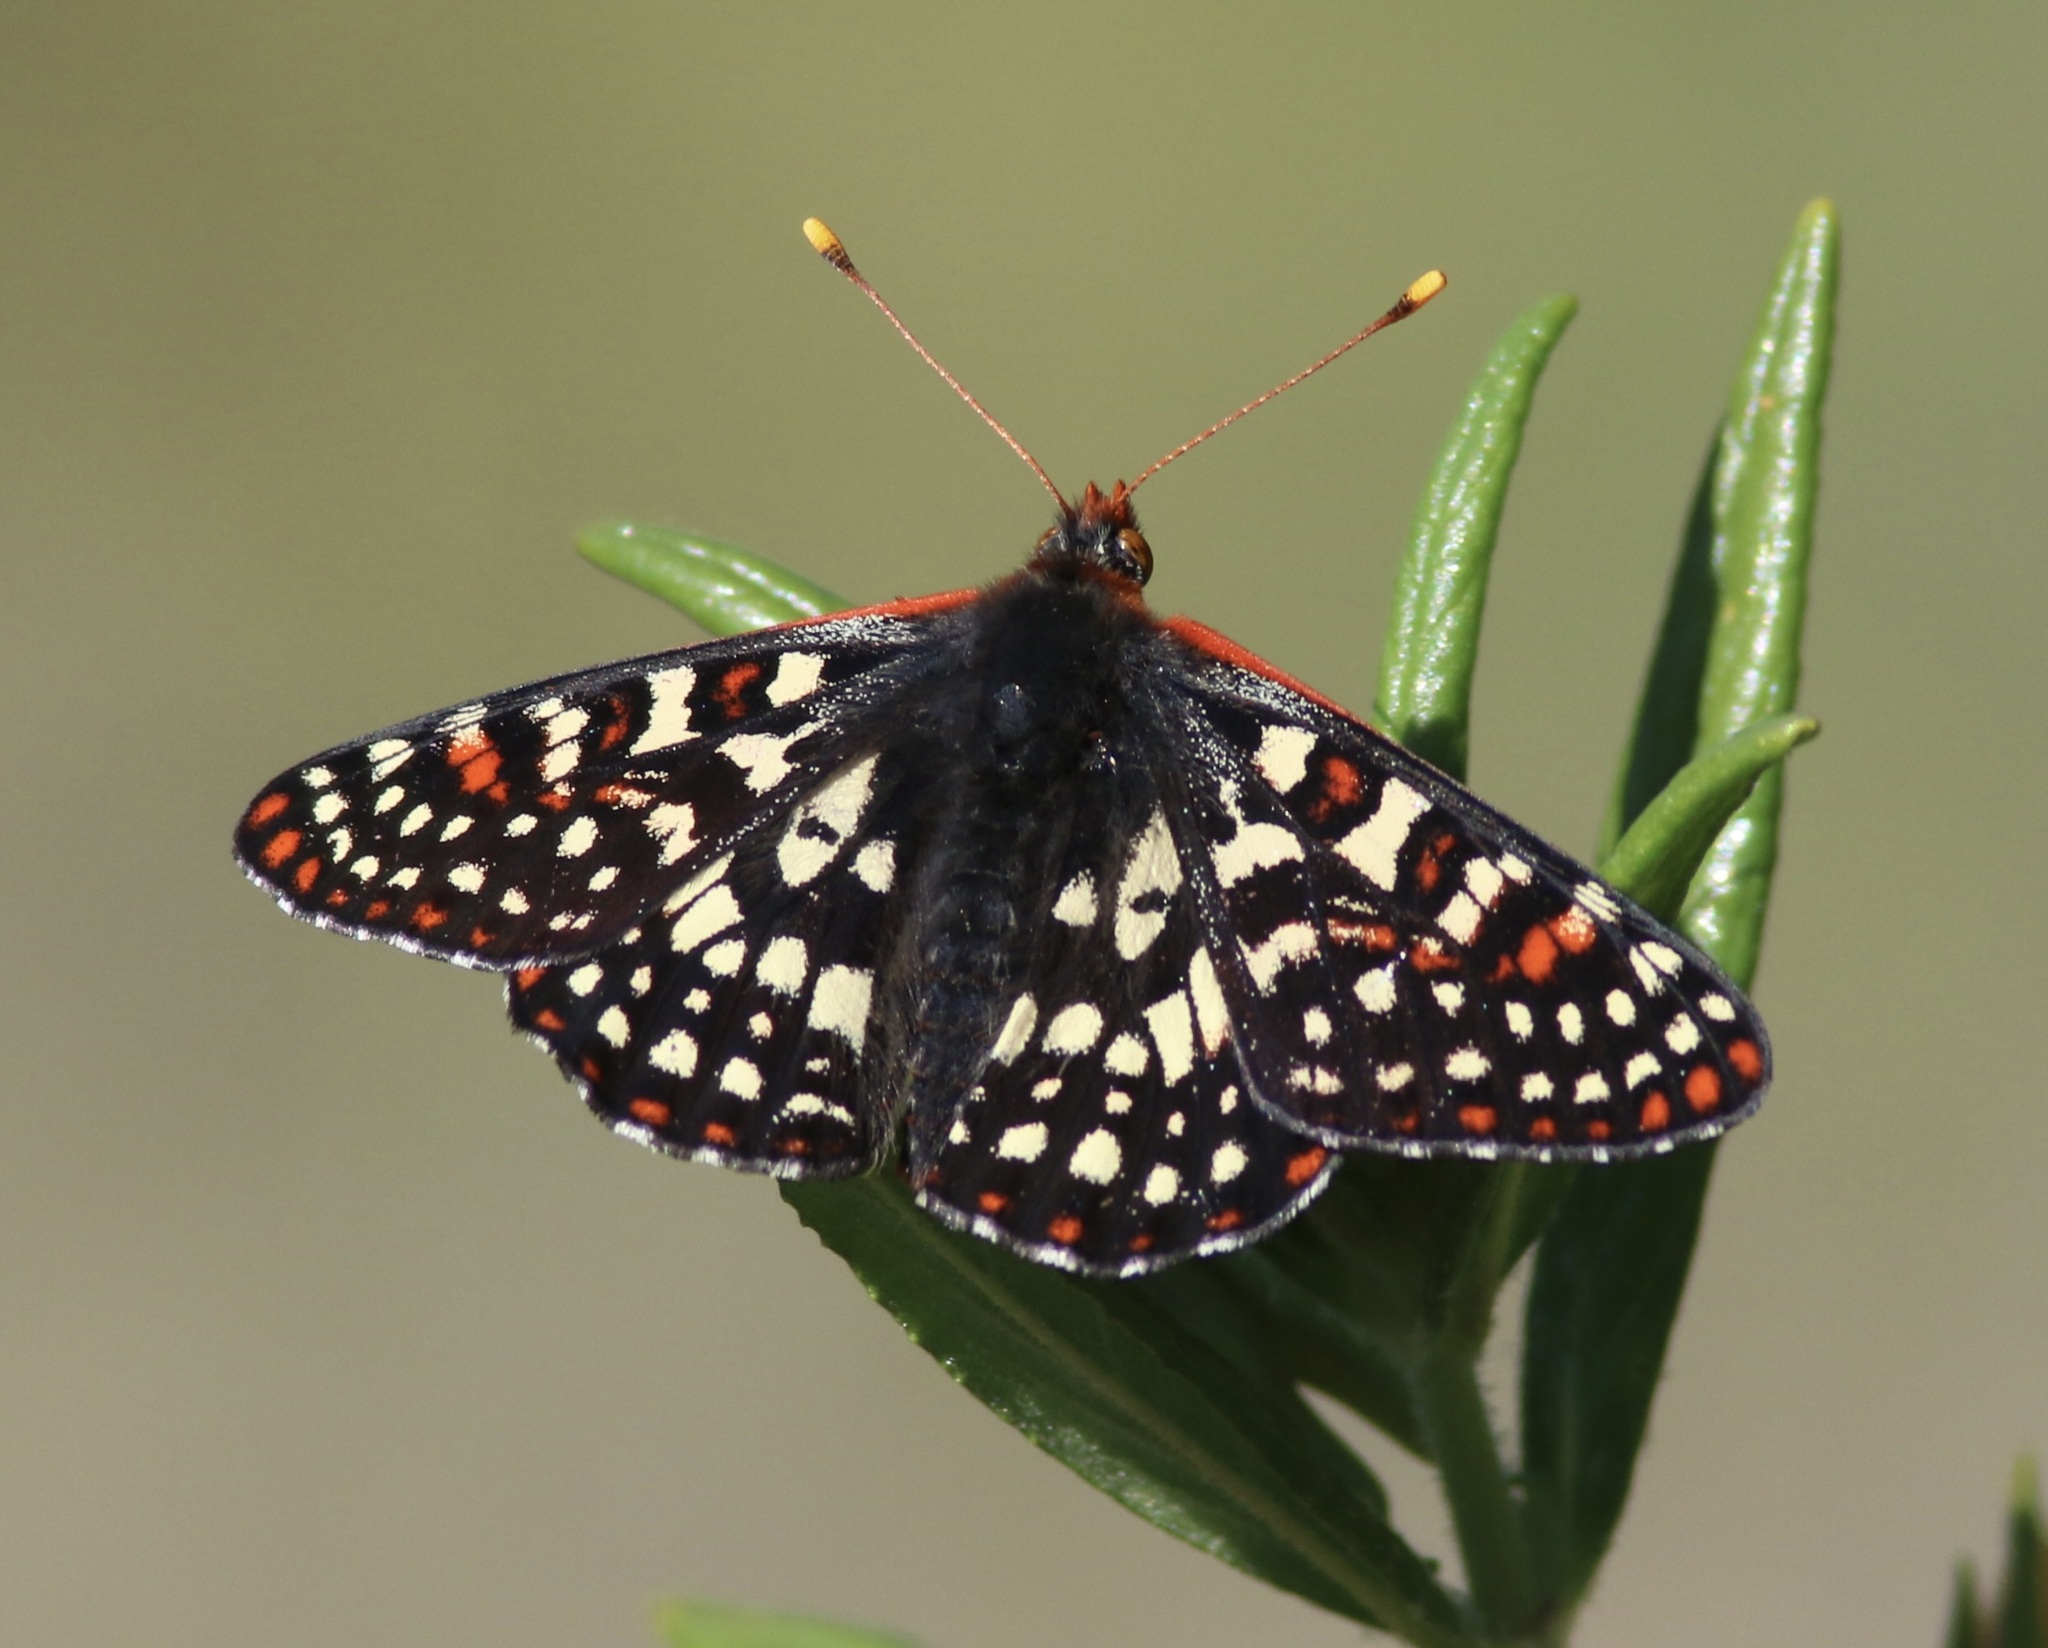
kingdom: Animalia
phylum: Arthropoda
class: Insecta
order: Lepidoptera
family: Nymphalidae
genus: Occidryas
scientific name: Occidryas chalcedona
